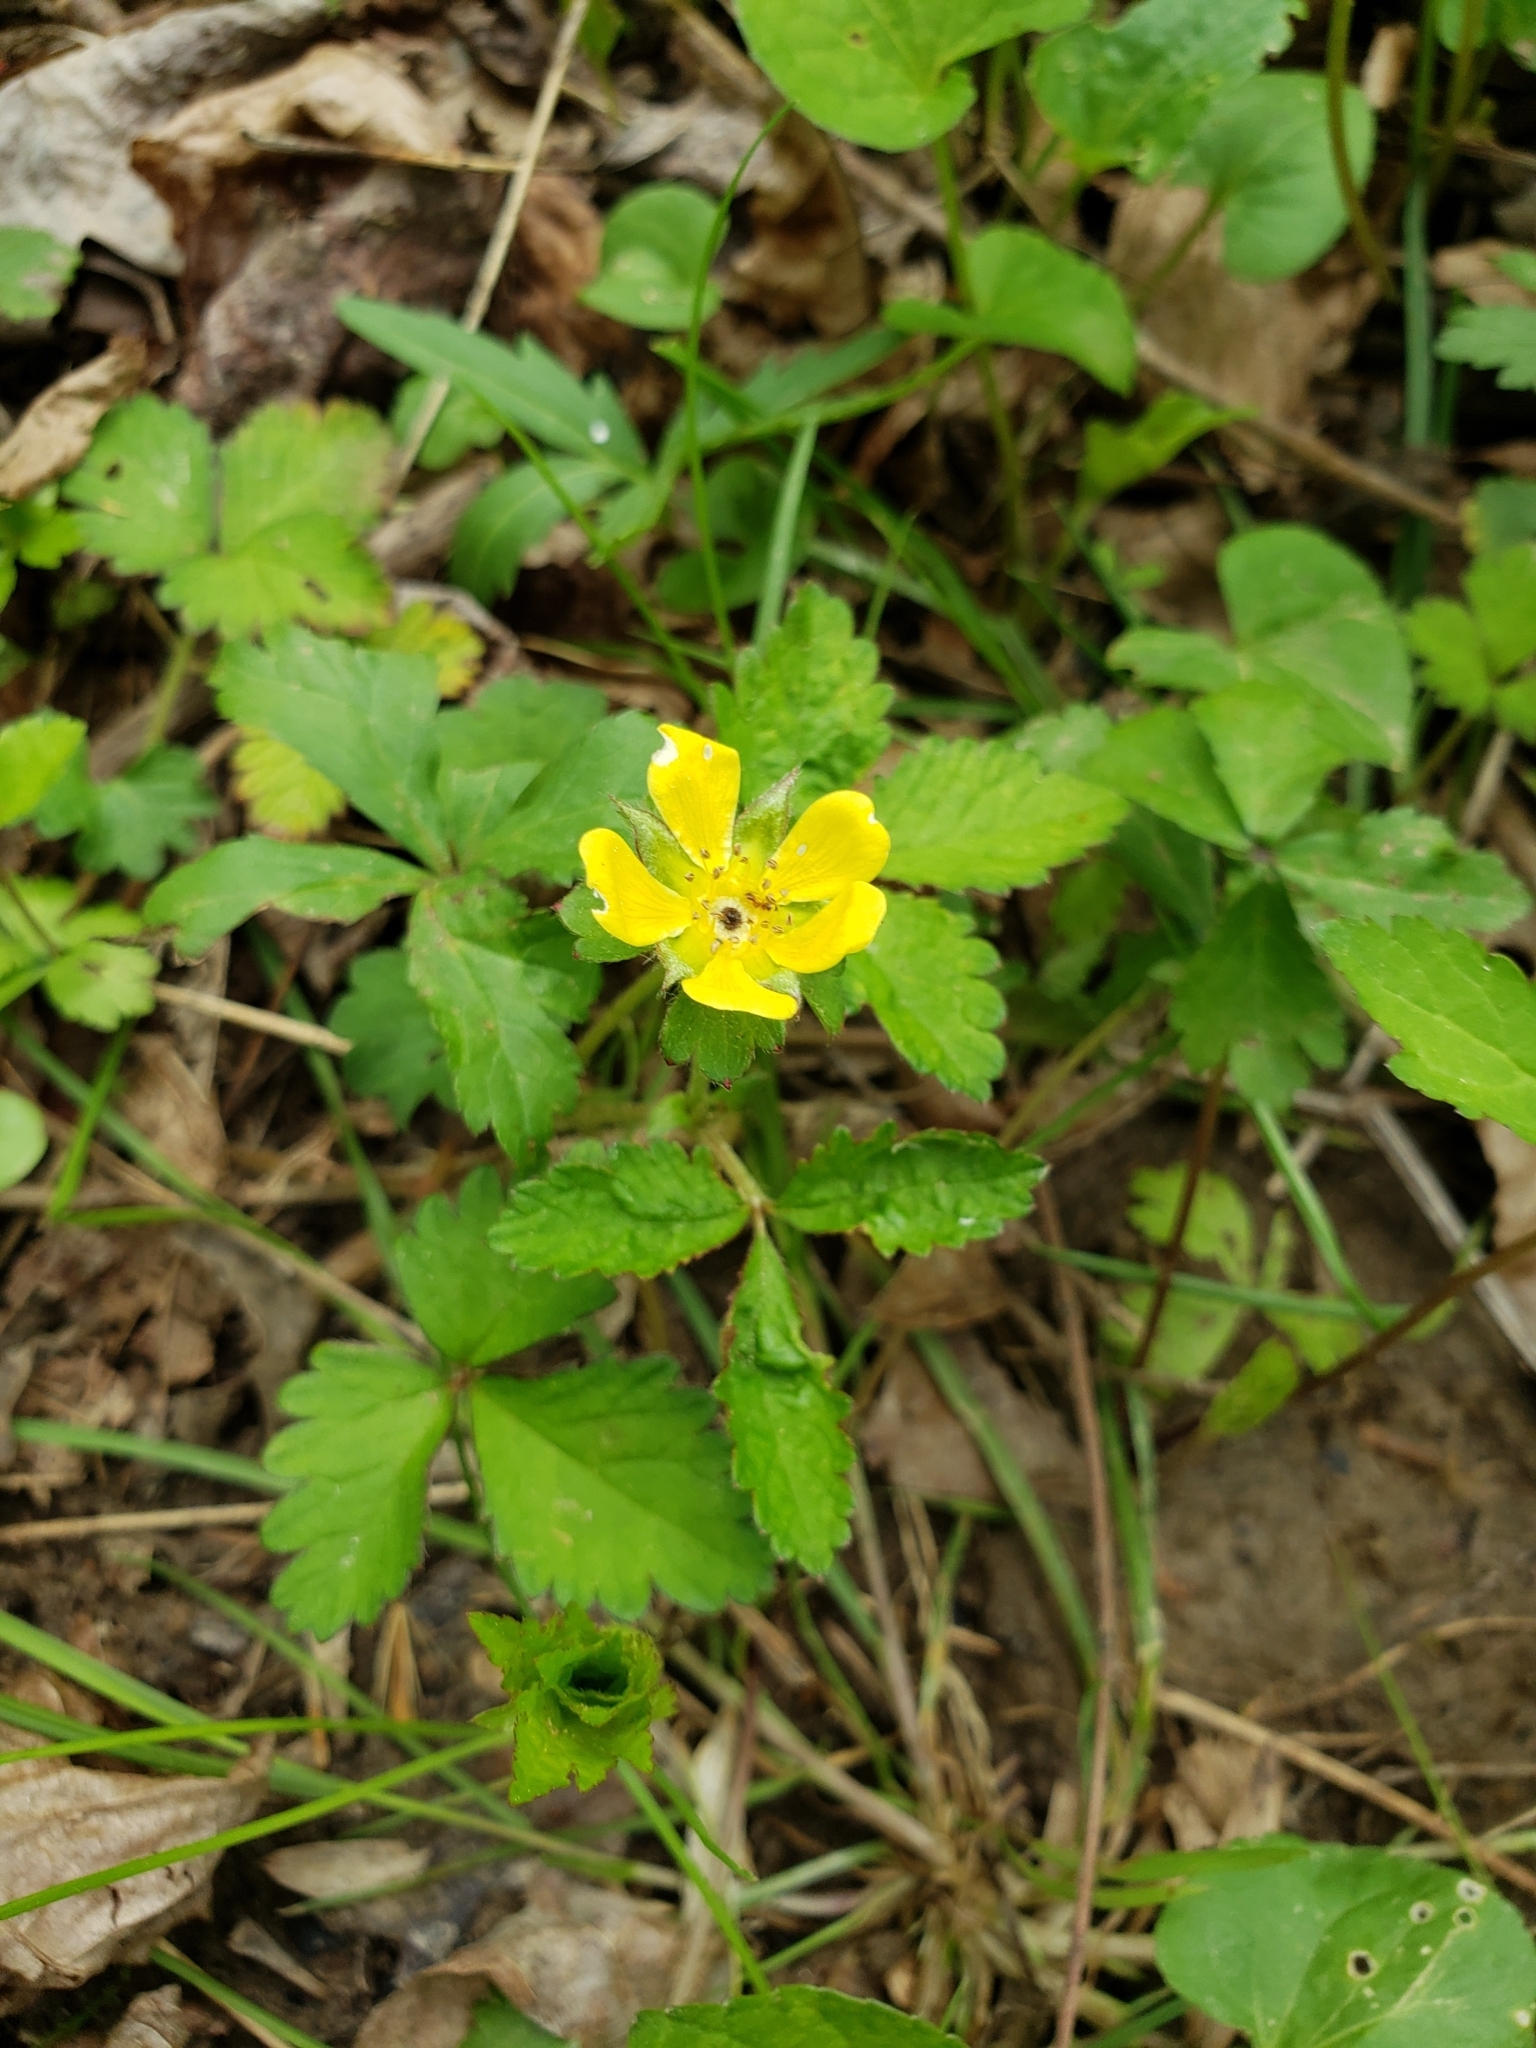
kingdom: Plantae
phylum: Tracheophyta
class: Magnoliopsida
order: Rosales
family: Rosaceae
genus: Potentilla
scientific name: Potentilla indica
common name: Yellow-flowered strawberry
